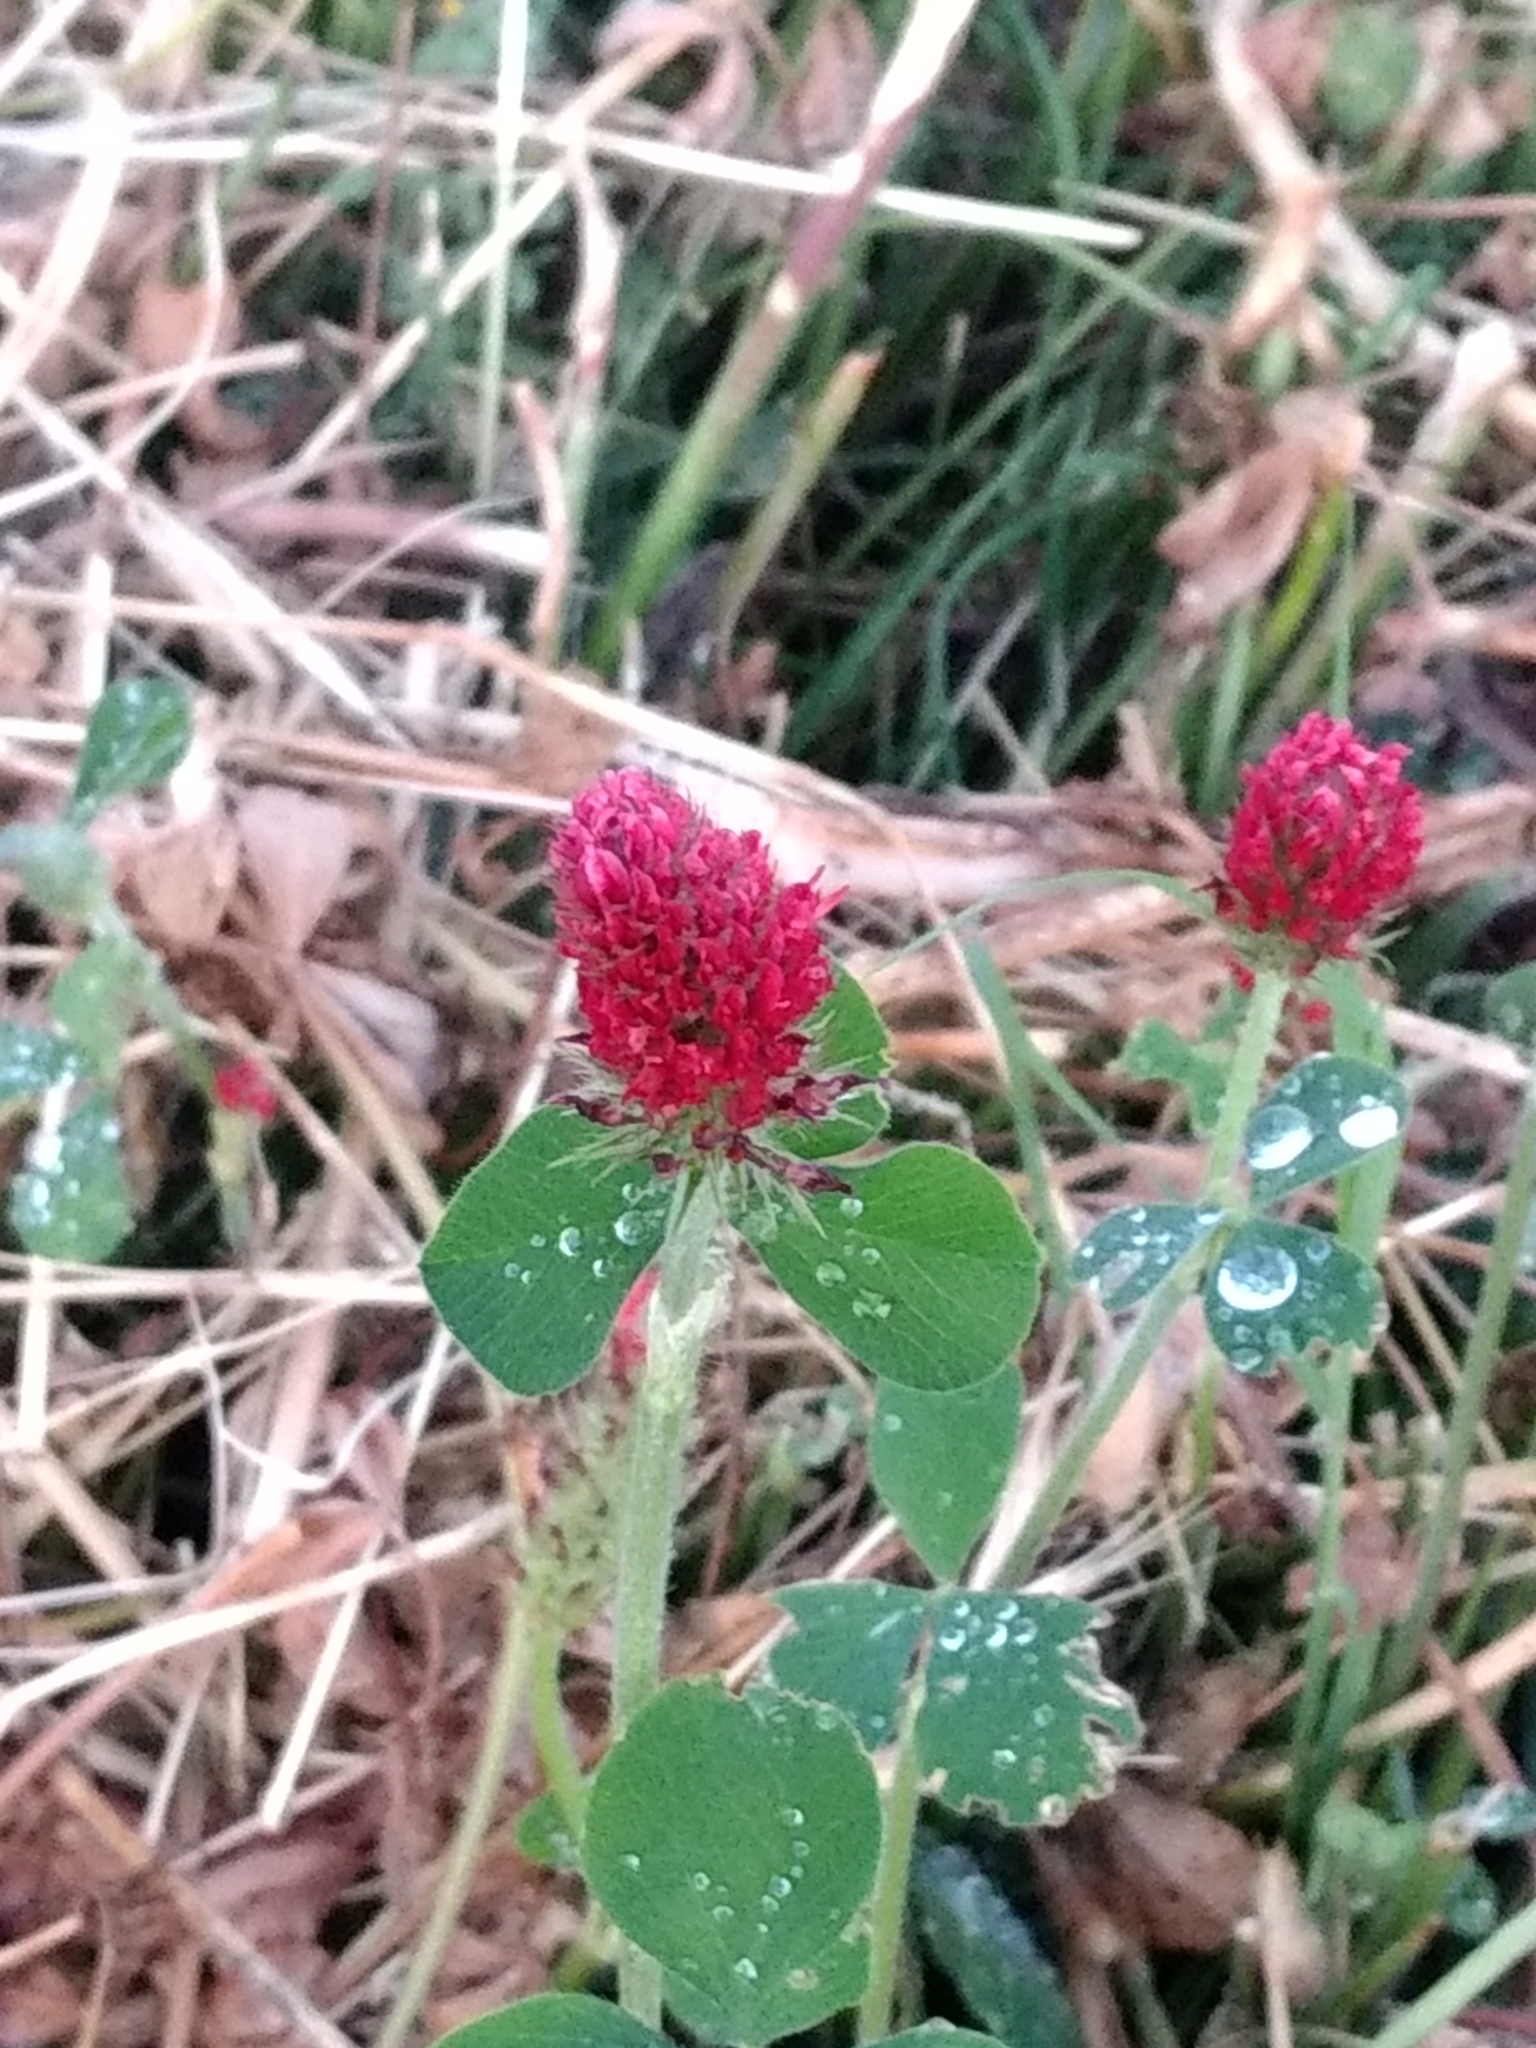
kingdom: Plantae
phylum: Tracheophyta
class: Magnoliopsida
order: Fabales
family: Fabaceae
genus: Trifolium
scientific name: Trifolium incarnatum
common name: Crimson clover
